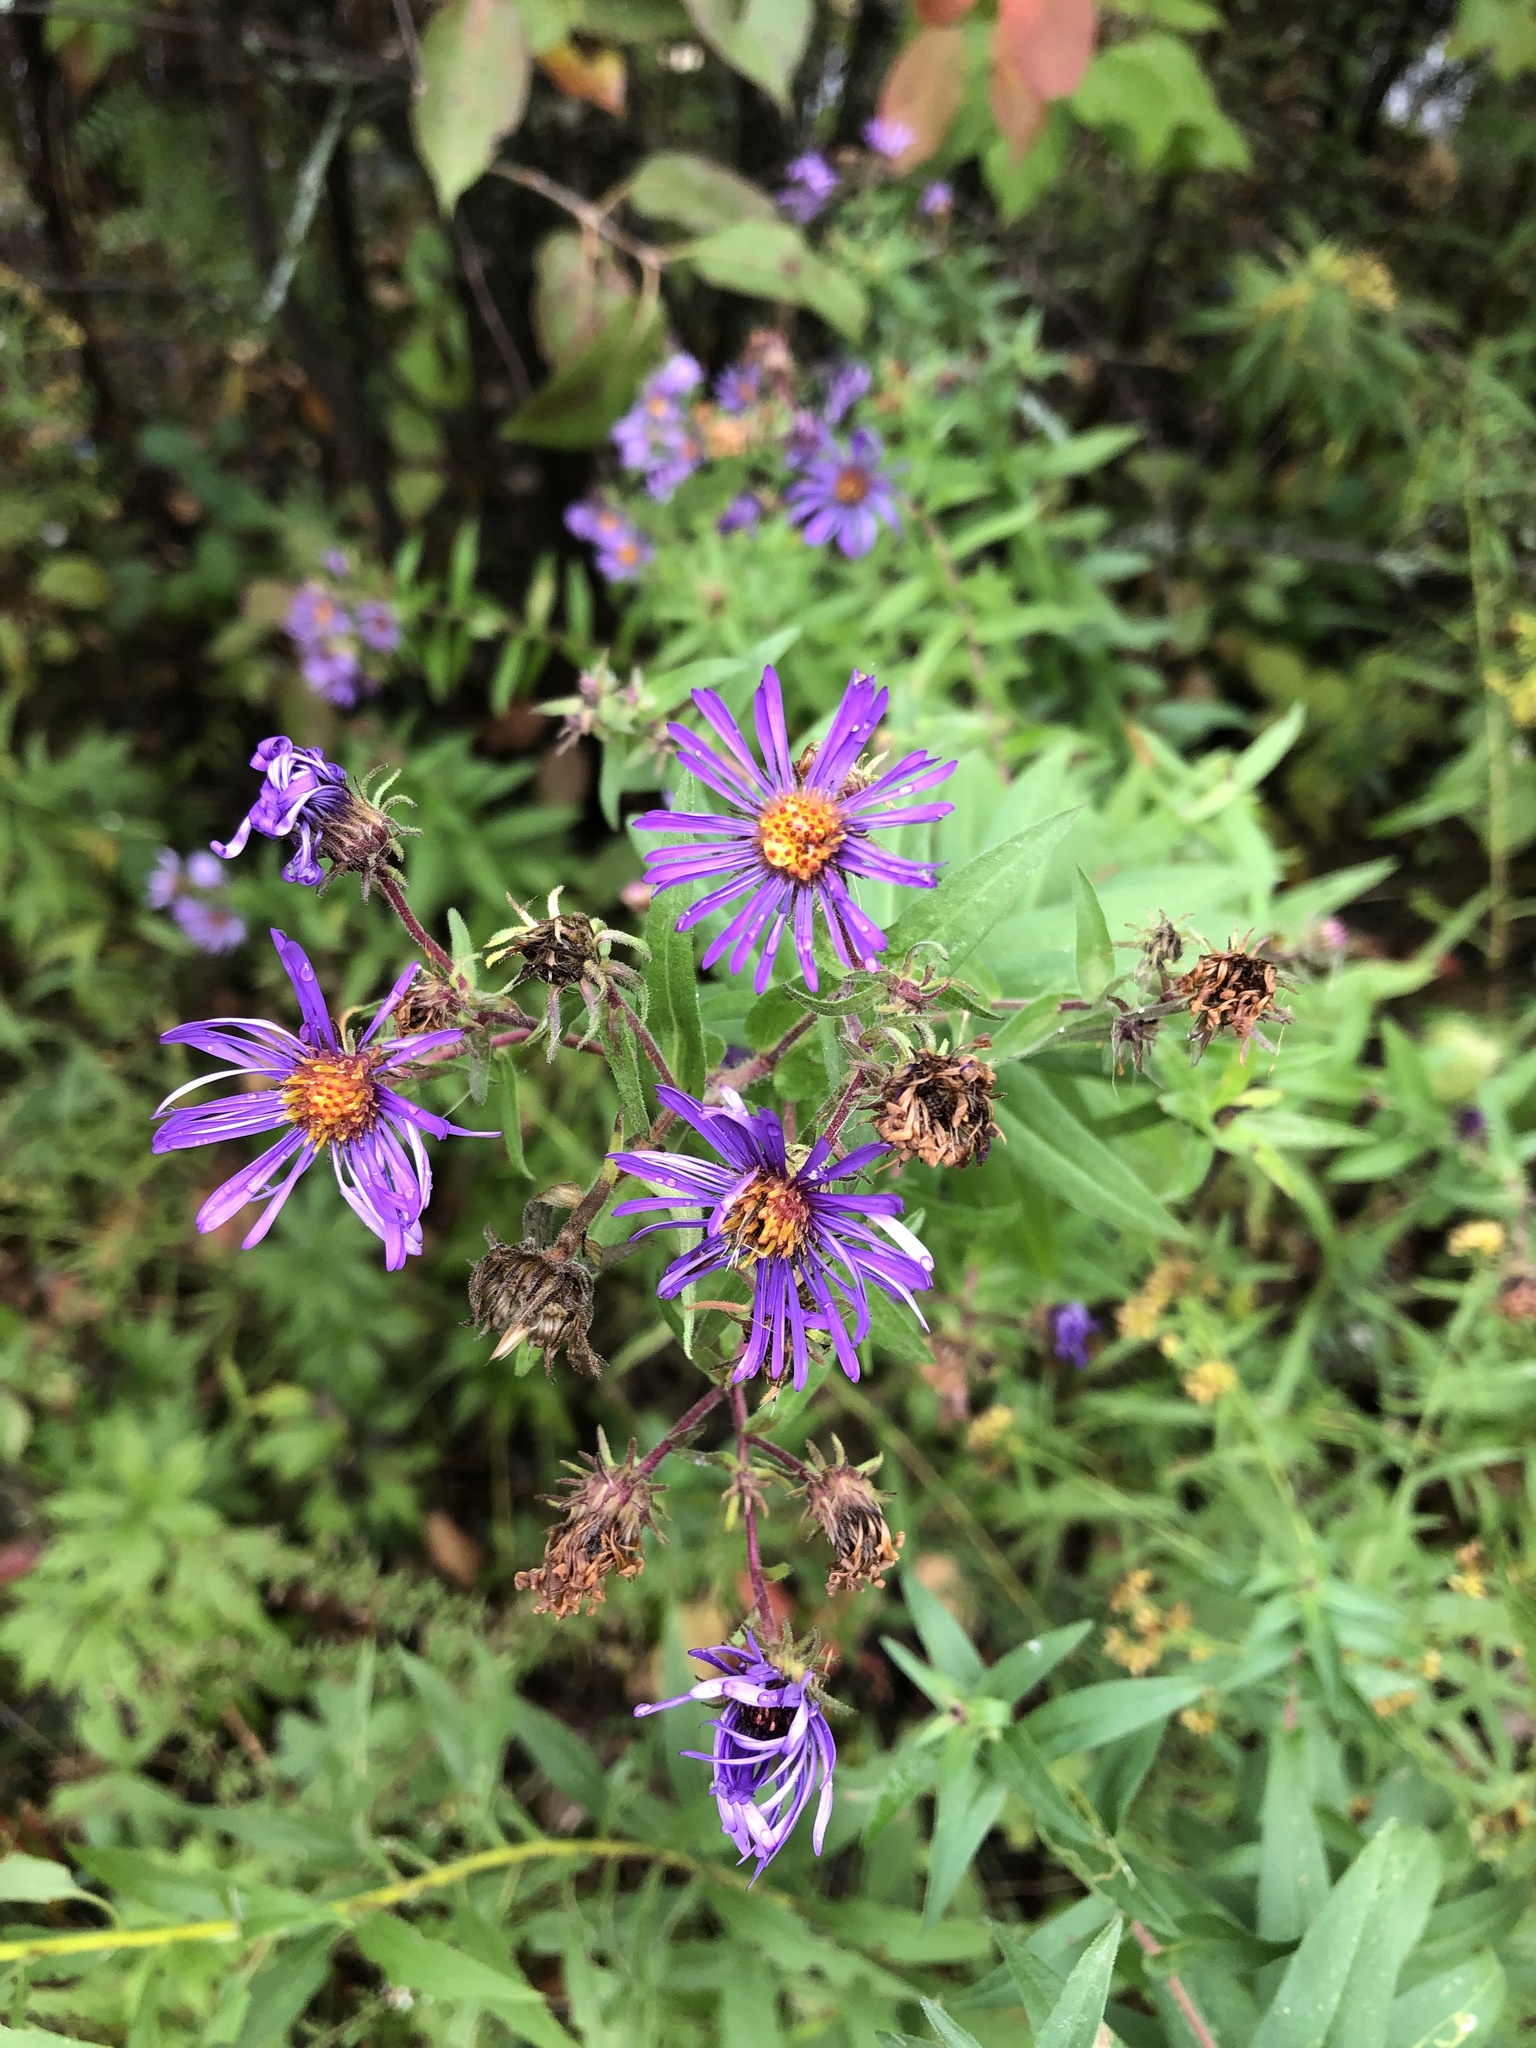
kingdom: Plantae
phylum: Tracheophyta
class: Magnoliopsida
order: Asterales
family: Asteraceae
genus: Symphyotrichum
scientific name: Symphyotrichum novae-angliae
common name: Michaelmas daisy
